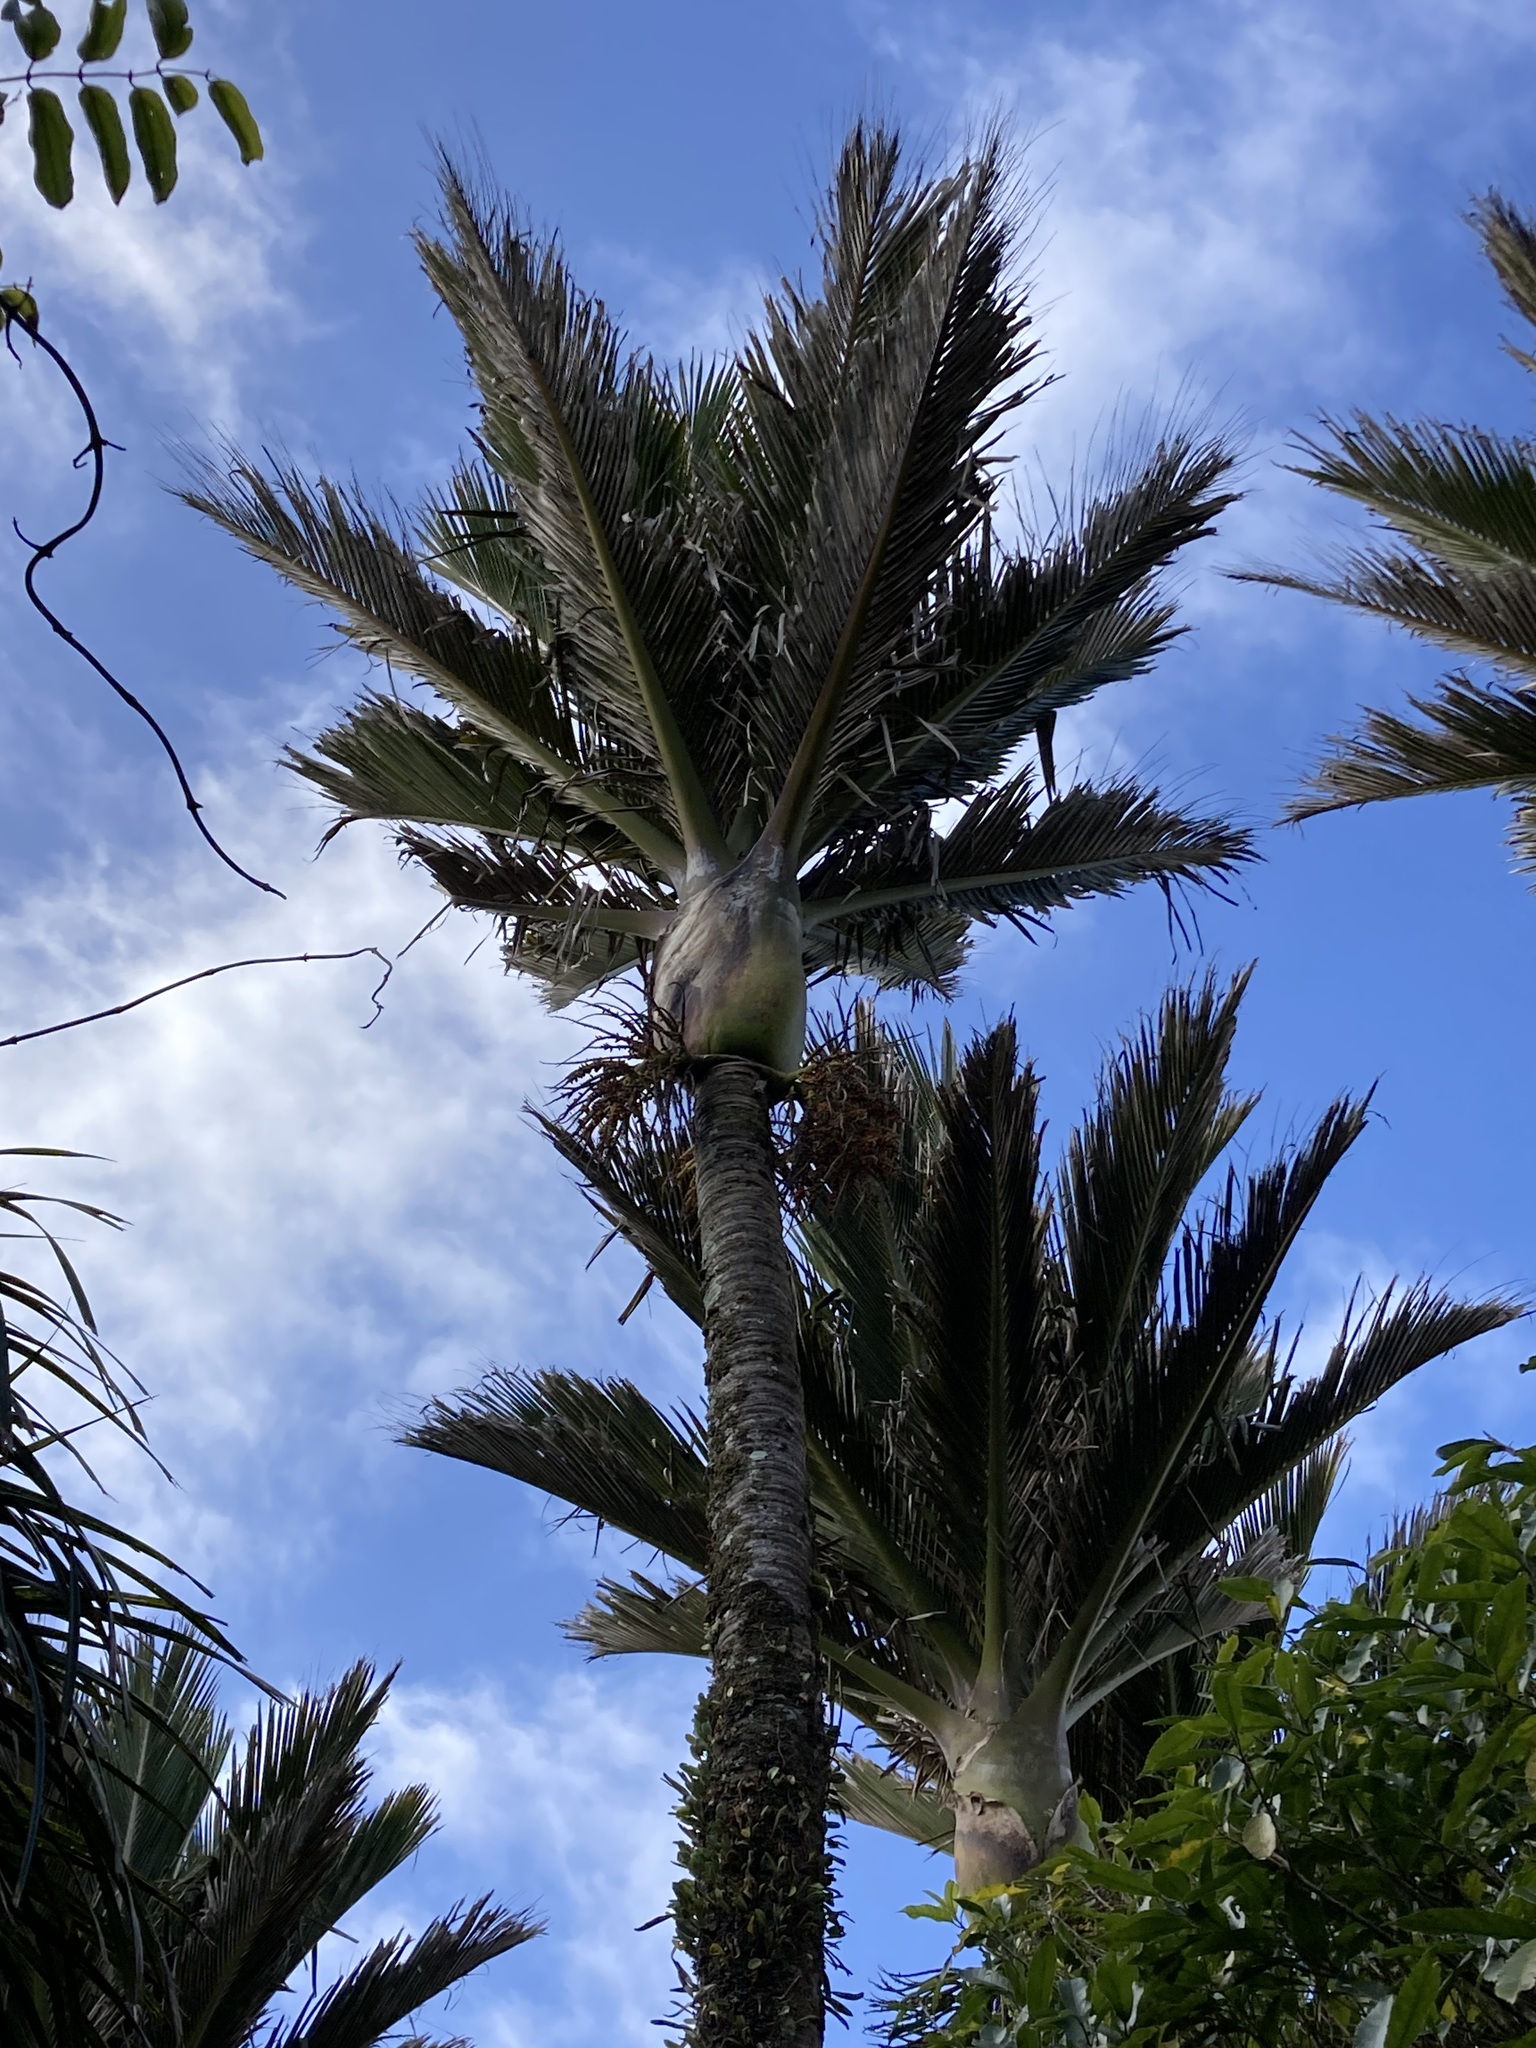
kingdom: Plantae
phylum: Tracheophyta
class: Liliopsida
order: Arecales
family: Arecaceae
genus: Rhopalostylis
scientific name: Rhopalostylis sapida
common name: Feather-duster palm
